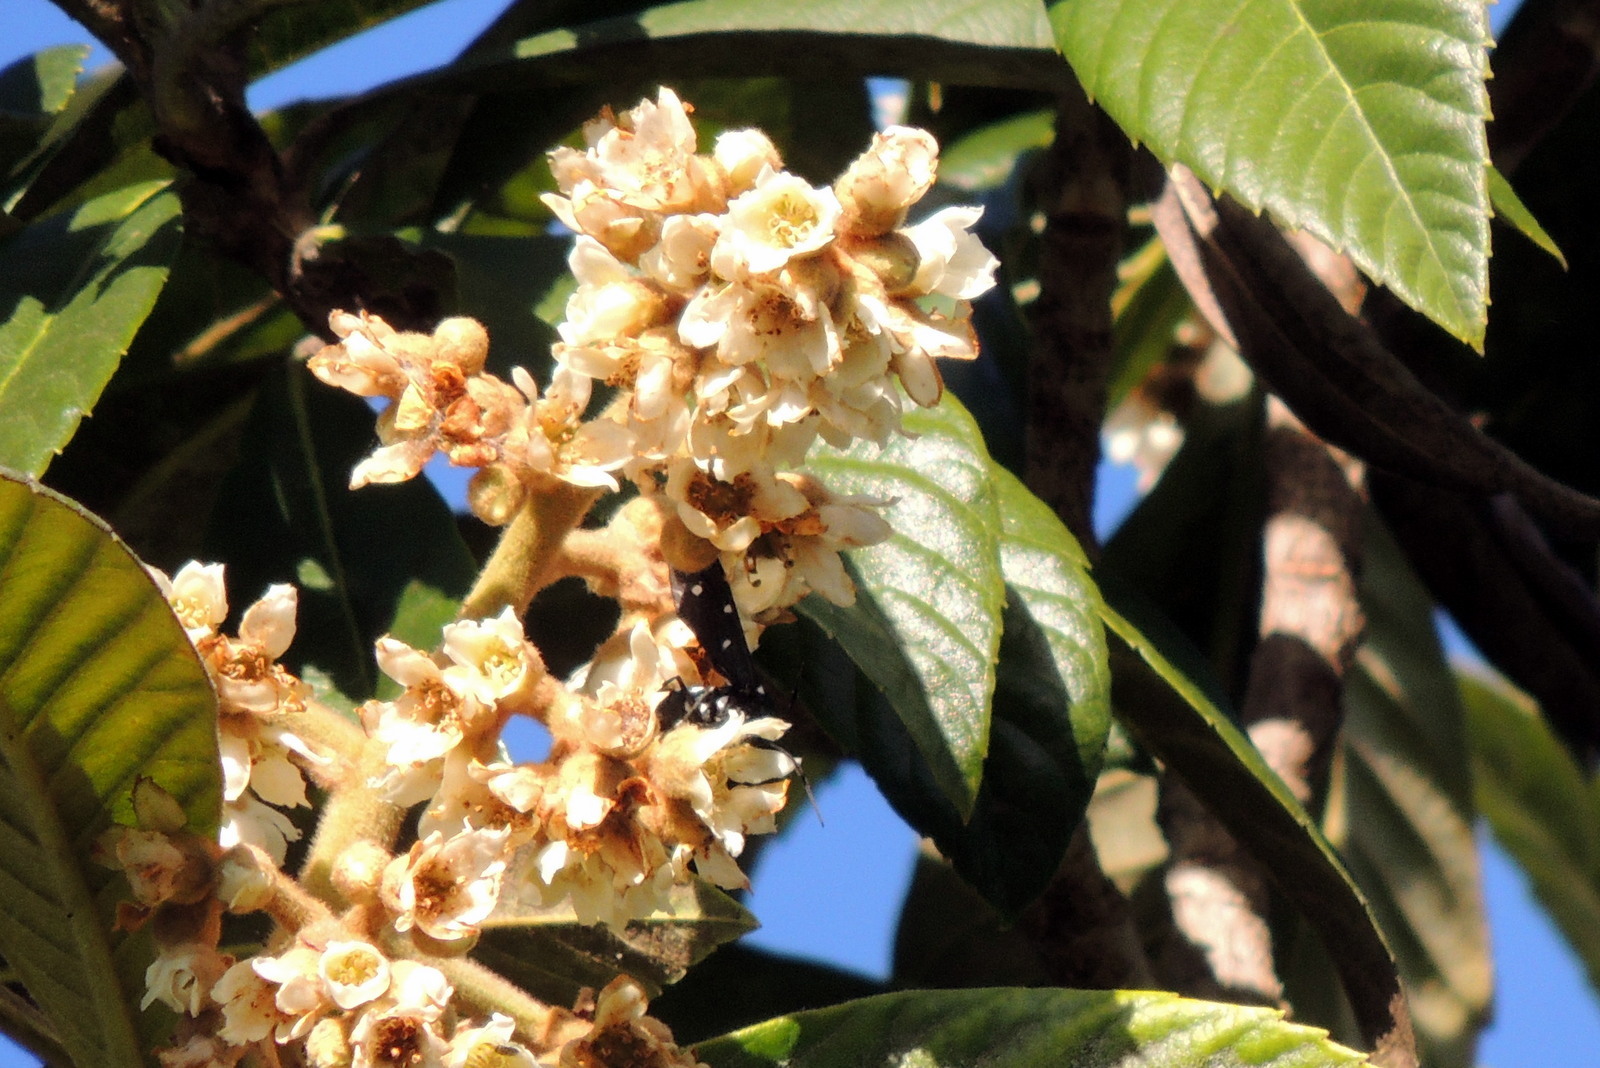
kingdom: Animalia
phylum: Arthropoda
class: Insecta
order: Lepidoptera
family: Erebidae
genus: Syntomeida
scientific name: Syntomeida epilais
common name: Polka-dot wasp moth
